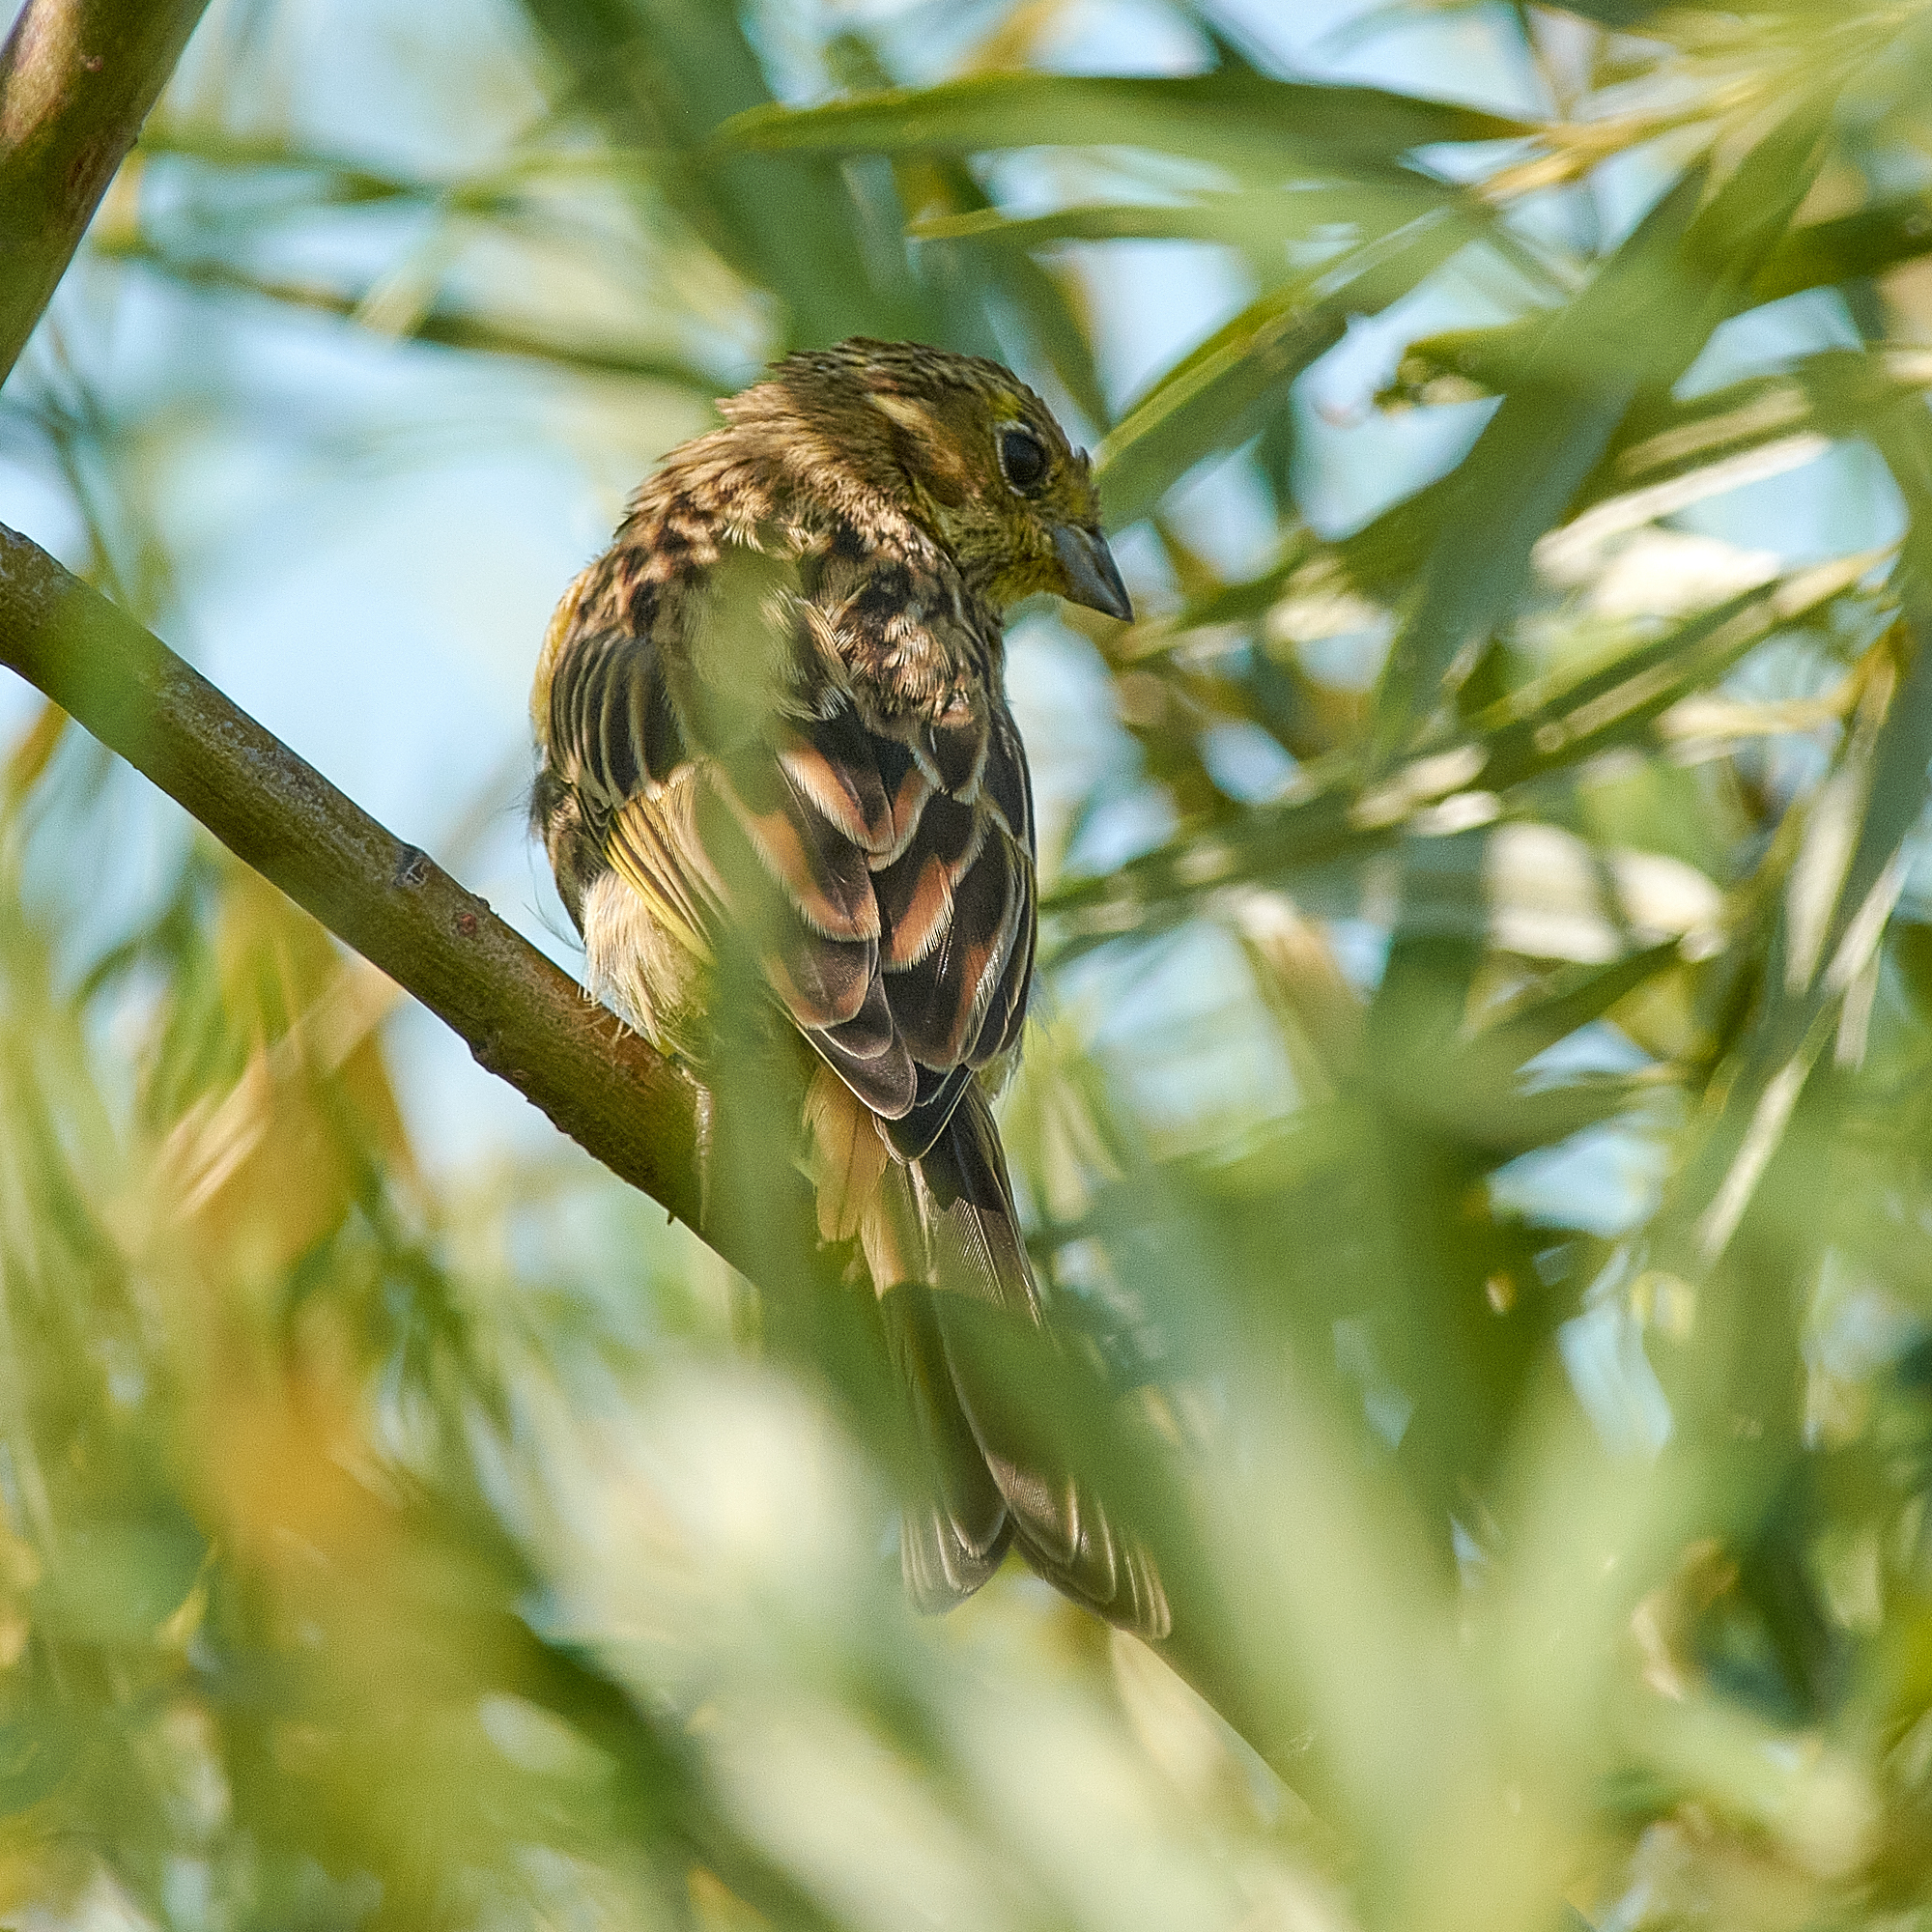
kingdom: Animalia
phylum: Chordata
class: Aves
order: Passeriformes
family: Emberizidae
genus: Emberiza
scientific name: Emberiza citrinella
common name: Yellowhammer
